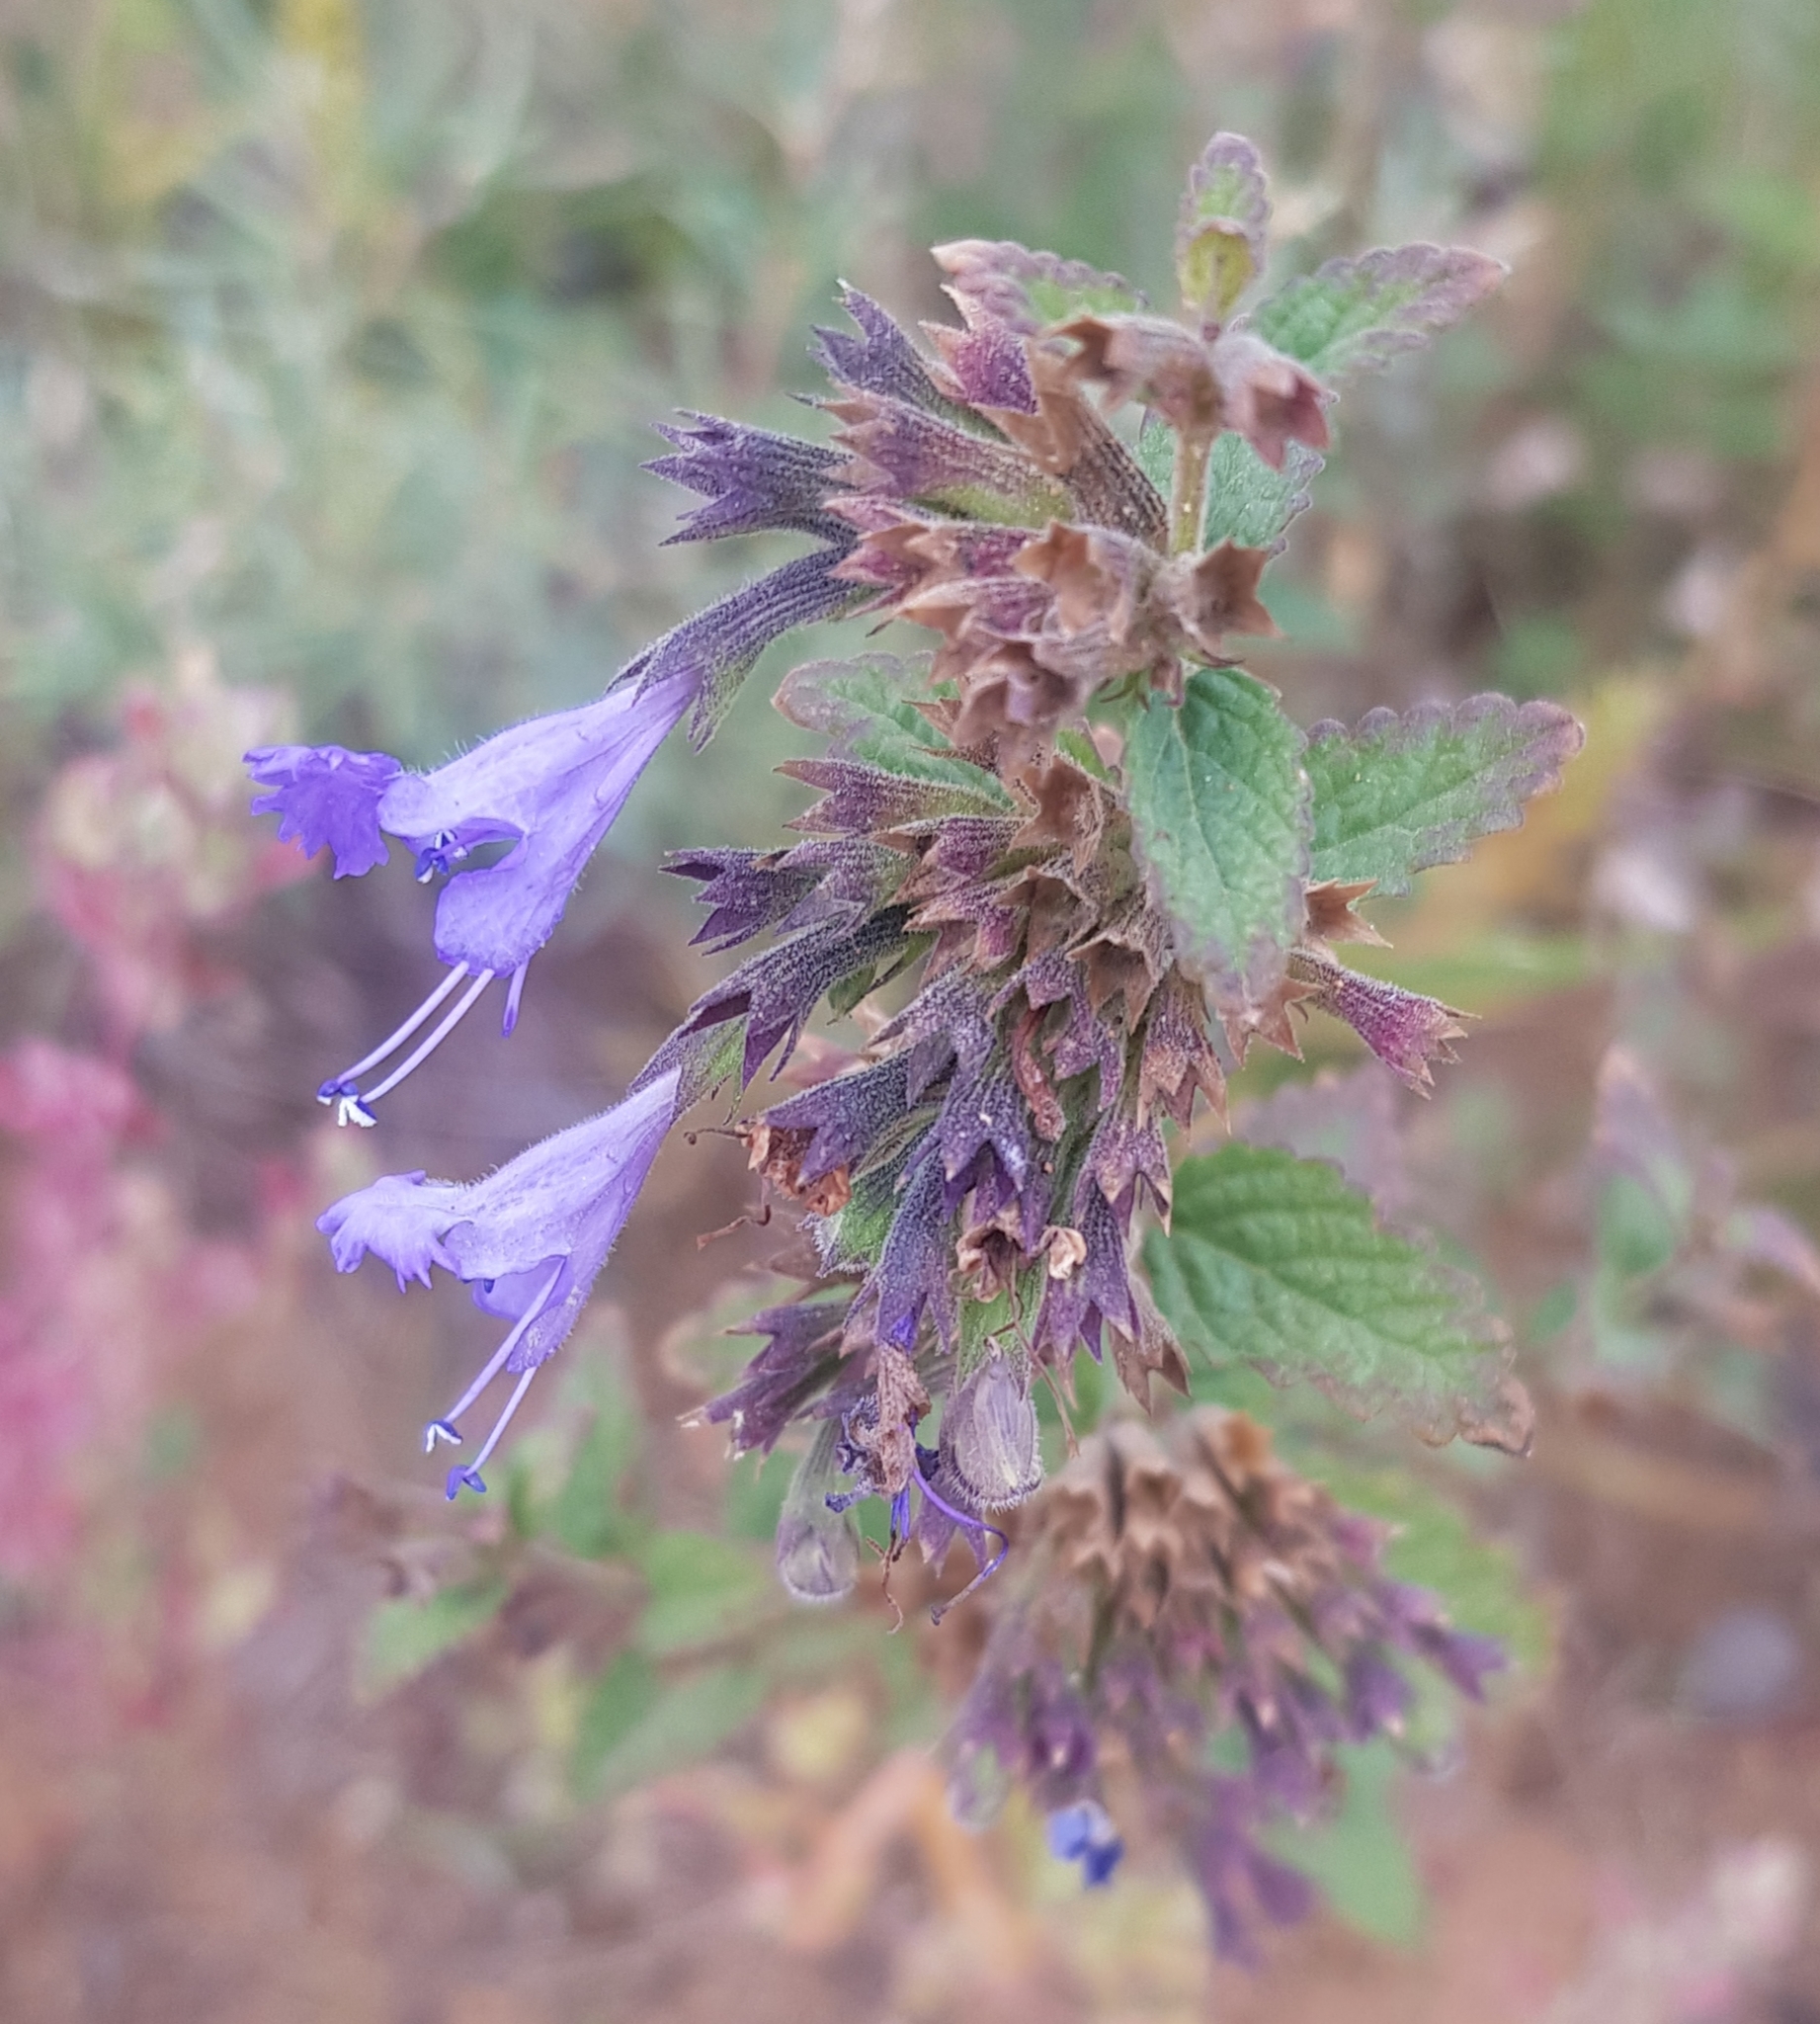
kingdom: Plantae
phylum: Tracheophyta
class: Magnoliopsida
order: Lamiales
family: Lamiaceae
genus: Nepeta
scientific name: Nepeta lophanthus
